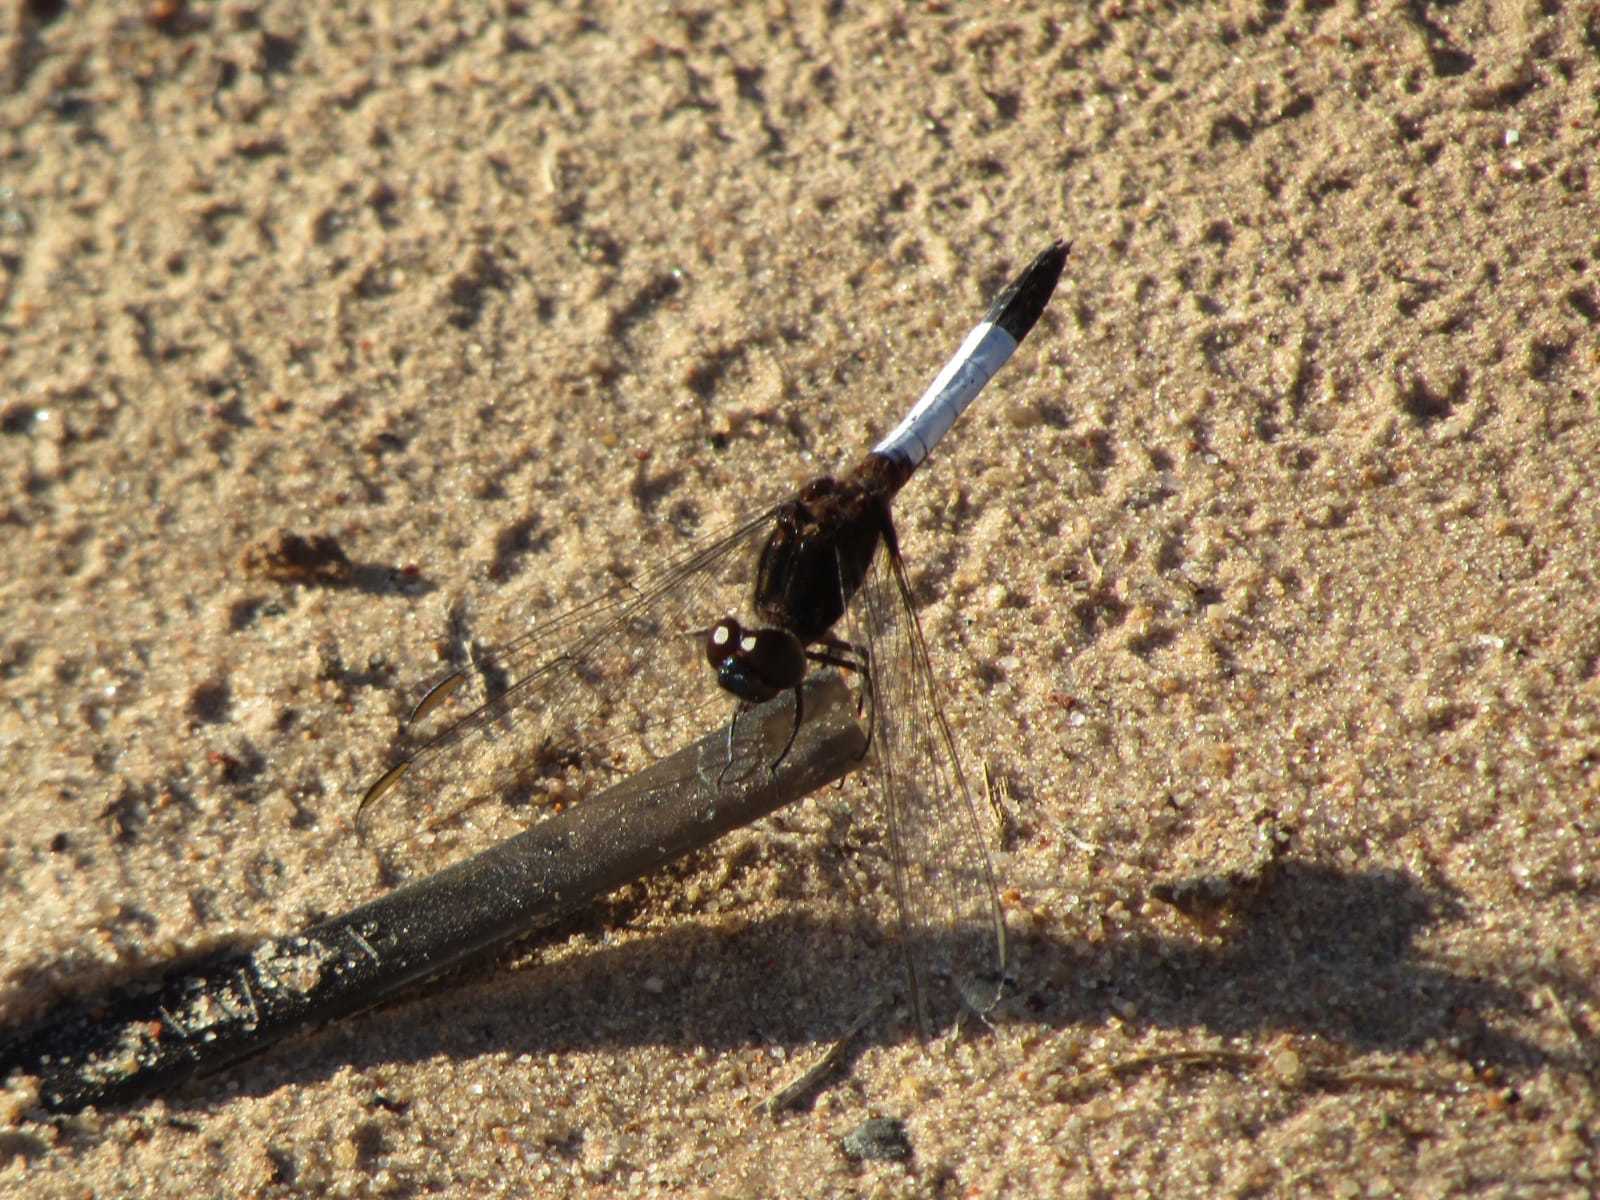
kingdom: Animalia
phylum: Arthropoda
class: Insecta
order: Odonata
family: Libellulidae
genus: Erythrodiplax
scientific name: Erythrodiplax unimaculata
